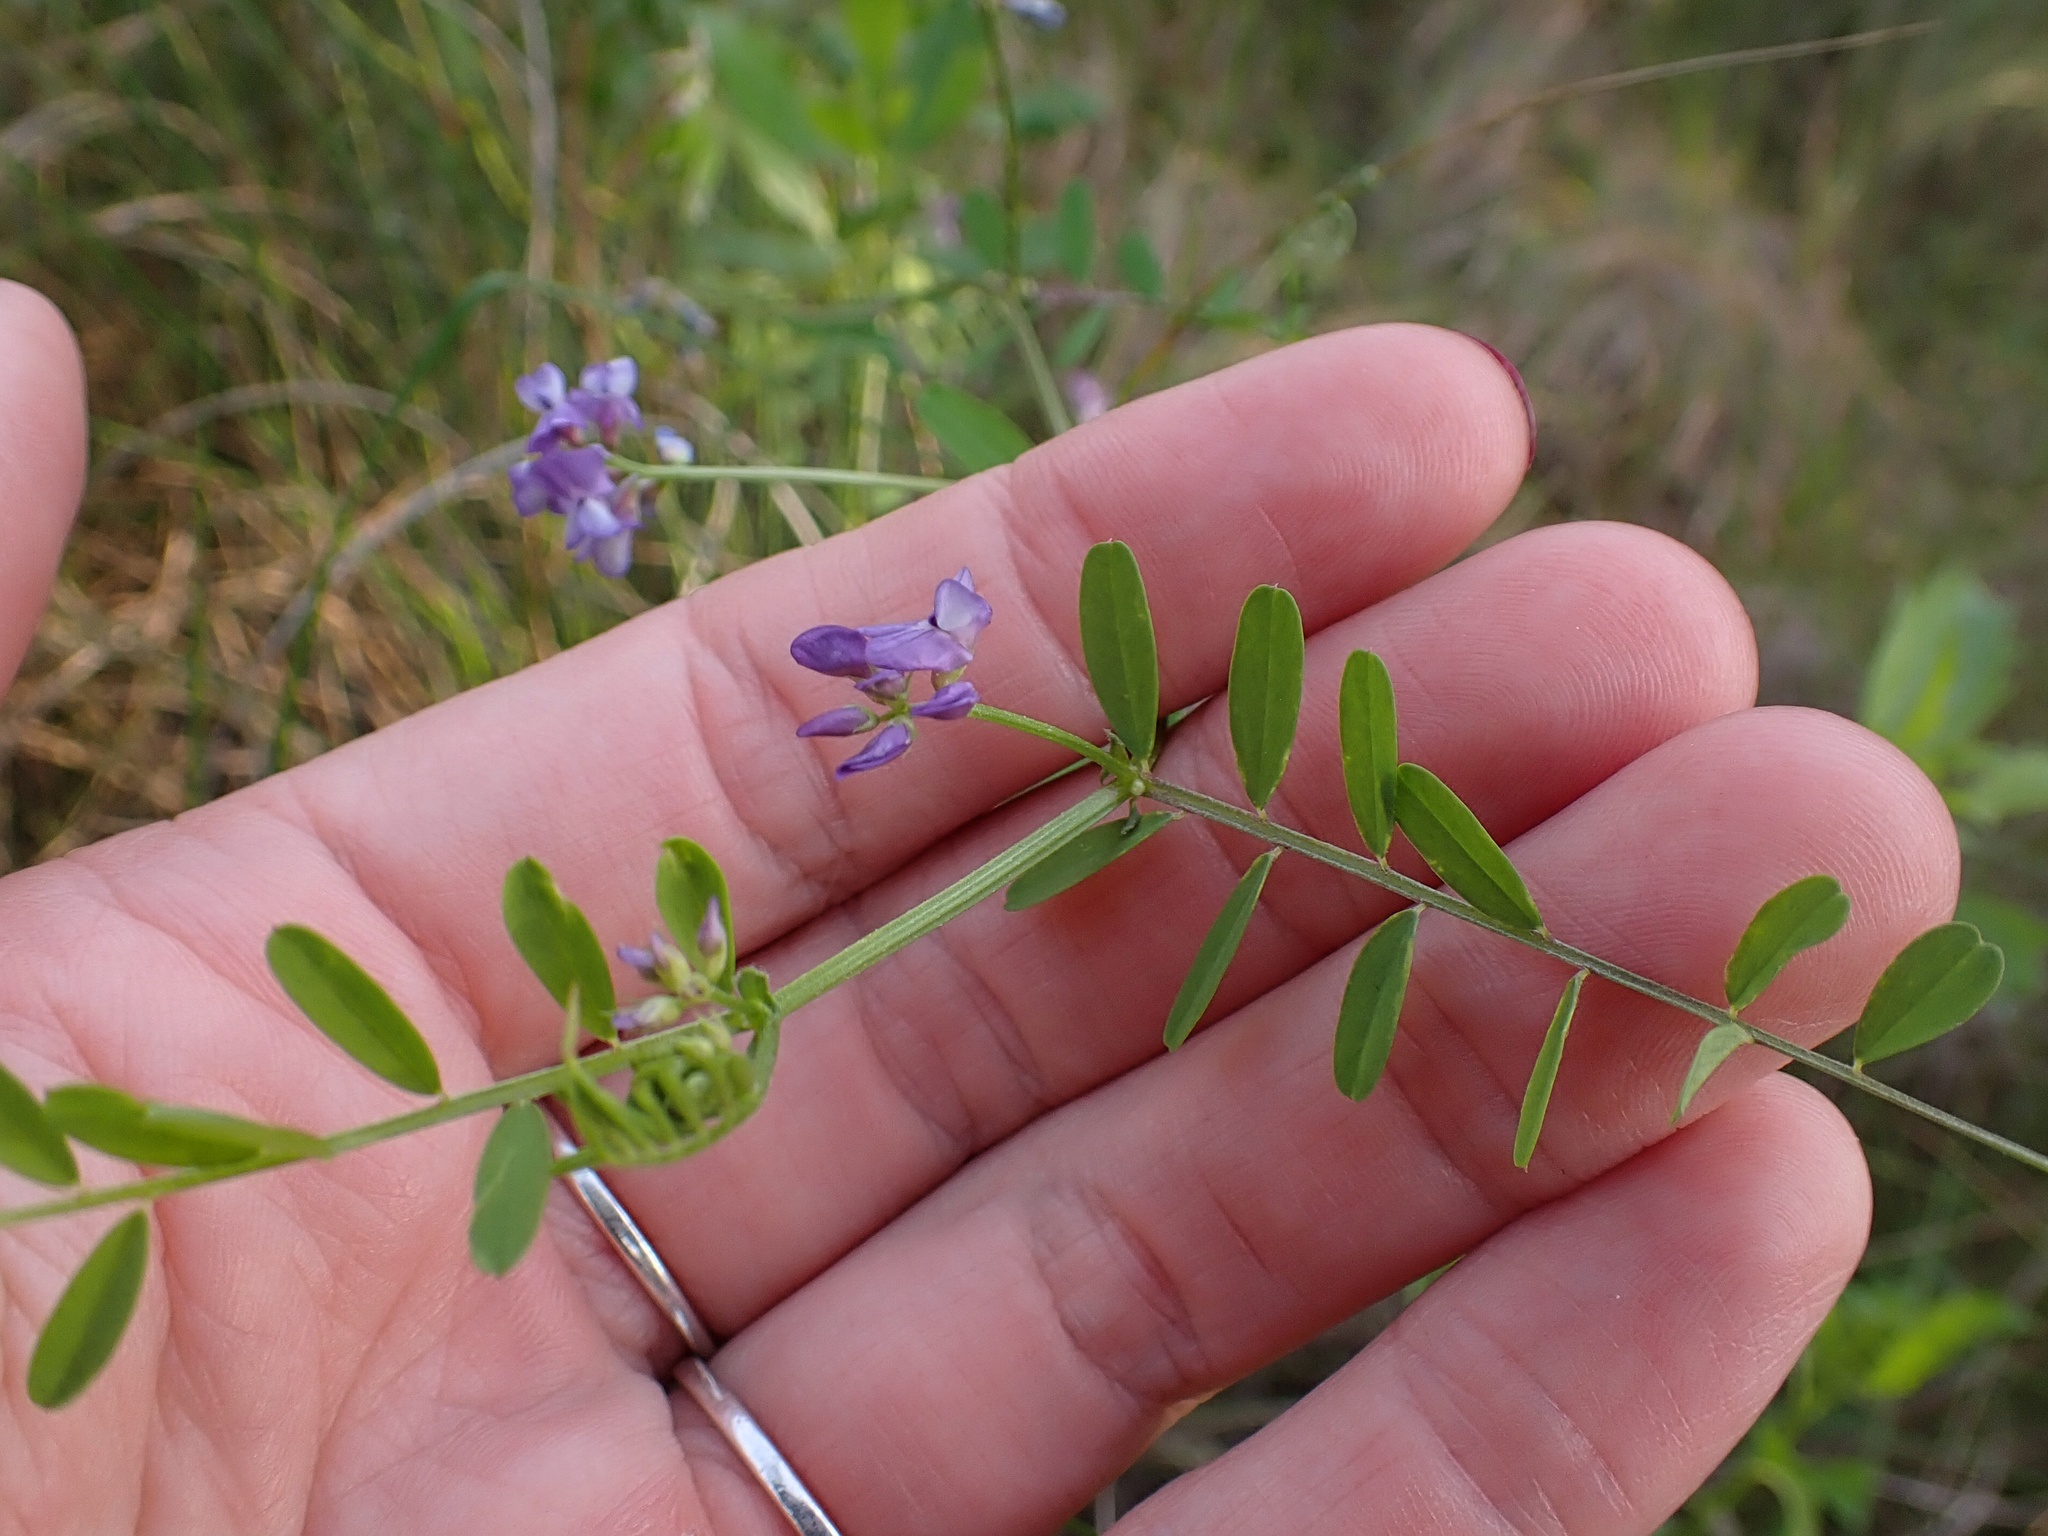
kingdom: Plantae
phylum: Tracheophyta
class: Magnoliopsida
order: Fabales
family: Fabaceae
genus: Vicia
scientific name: Vicia ludoviciana
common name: Louisiana vetch
